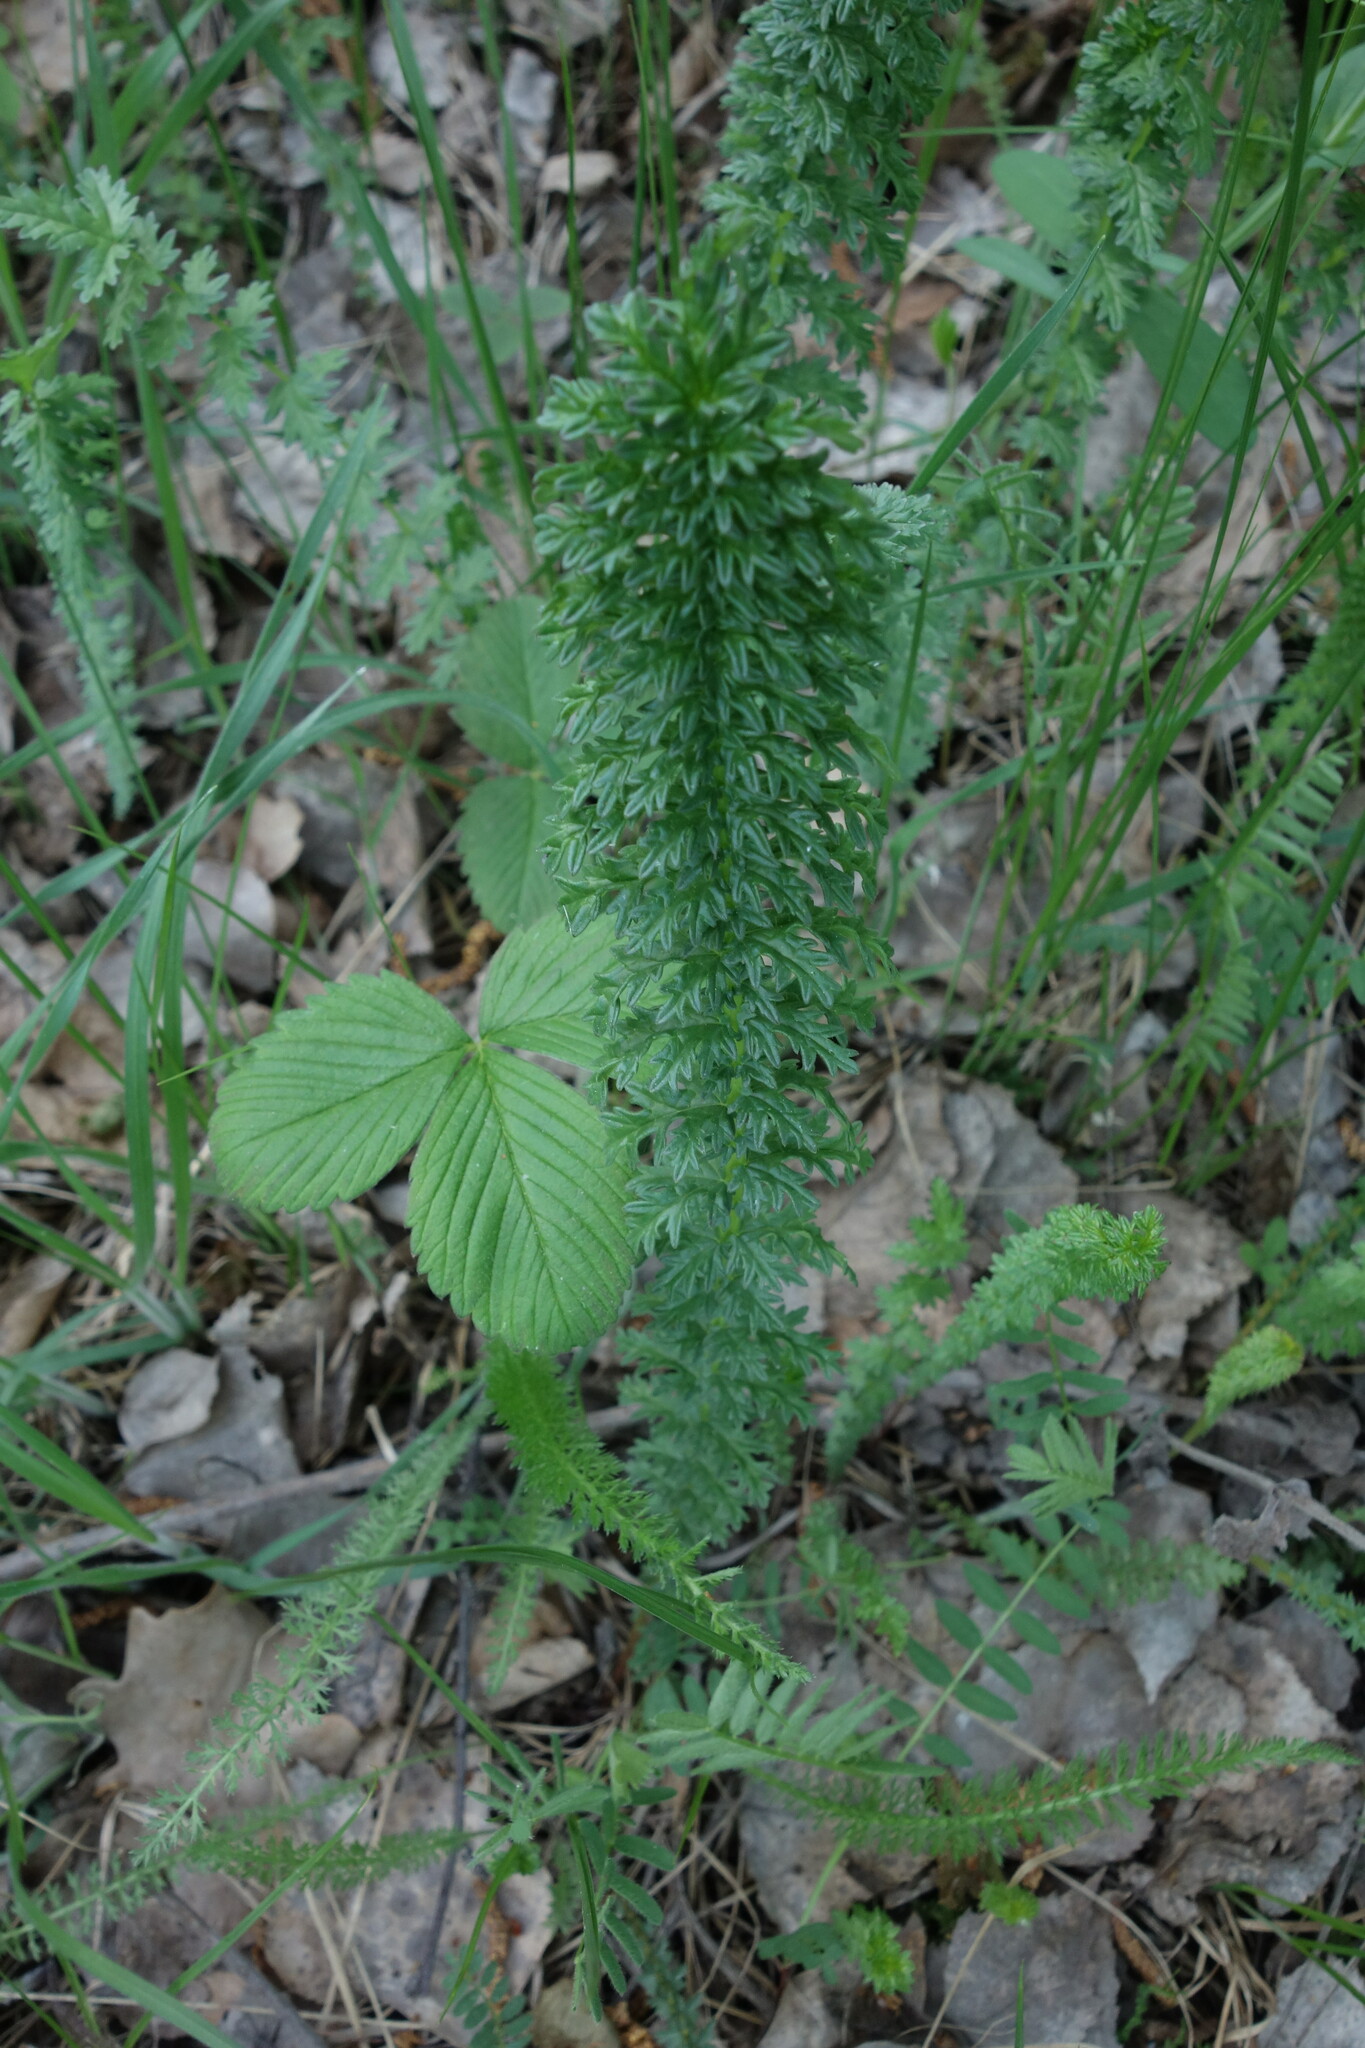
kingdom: Plantae
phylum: Tracheophyta
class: Magnoliopsida
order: Rosales
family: Rosaceae
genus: Filipendula
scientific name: Filipendula vulgaris
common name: Dropwort
